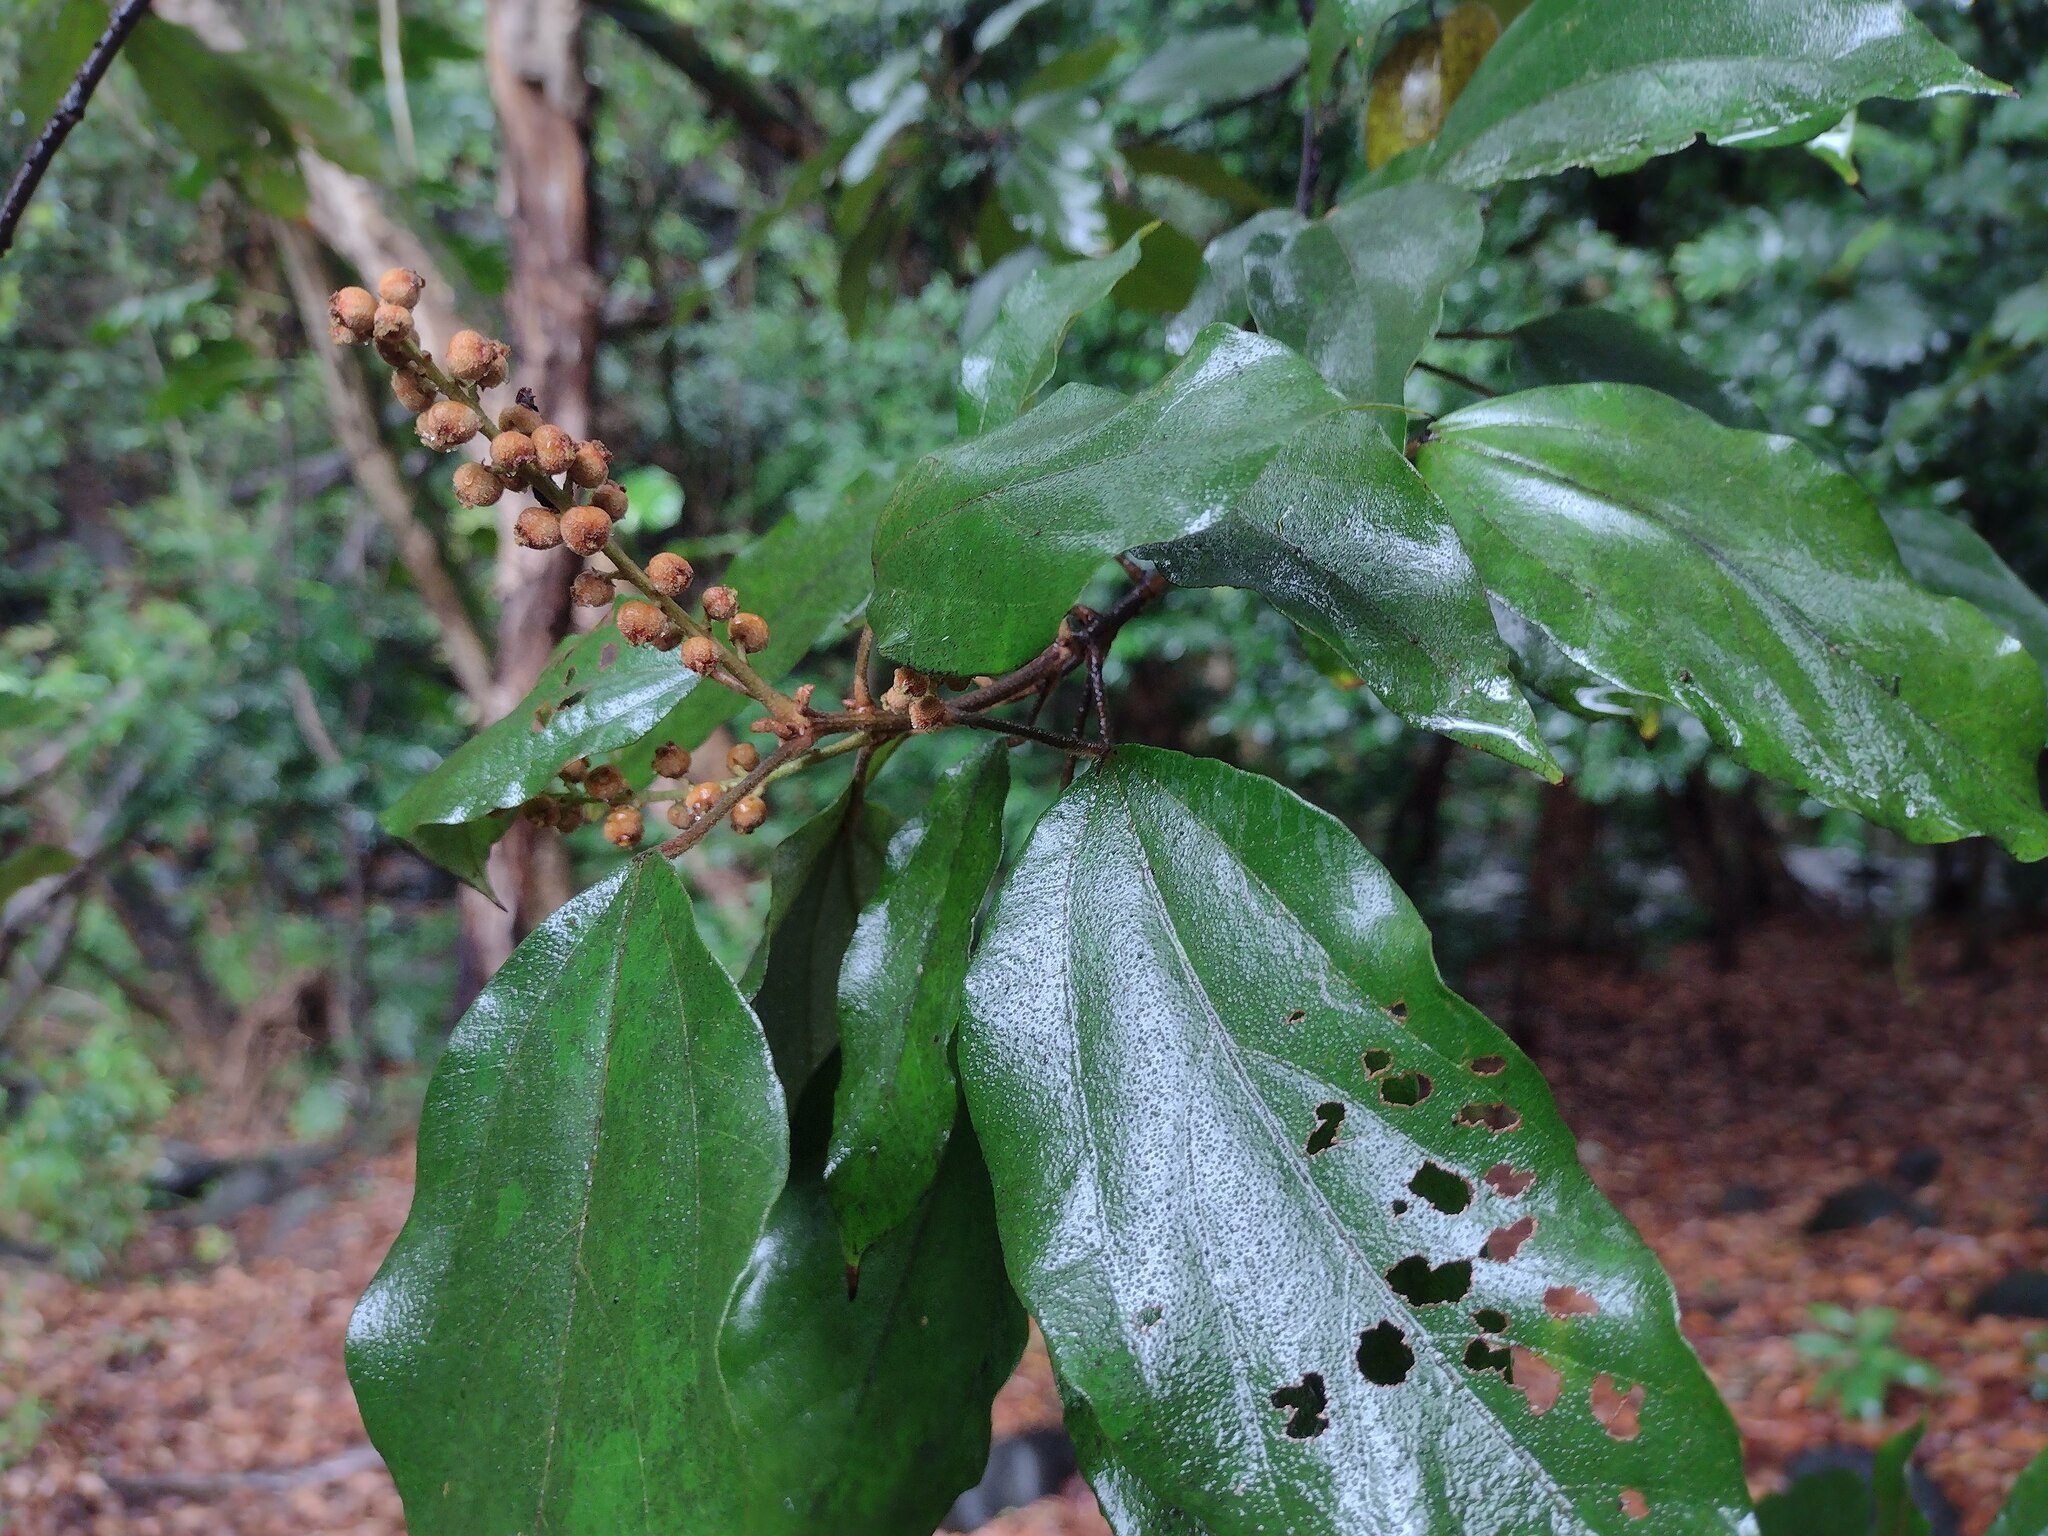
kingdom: Plantae
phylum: Tracheophyta
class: Magnoliopsida
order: Malpighiales
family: Euphorbiaceae
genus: Mallotus
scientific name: Mallotus philippensis
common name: Kamala tree
